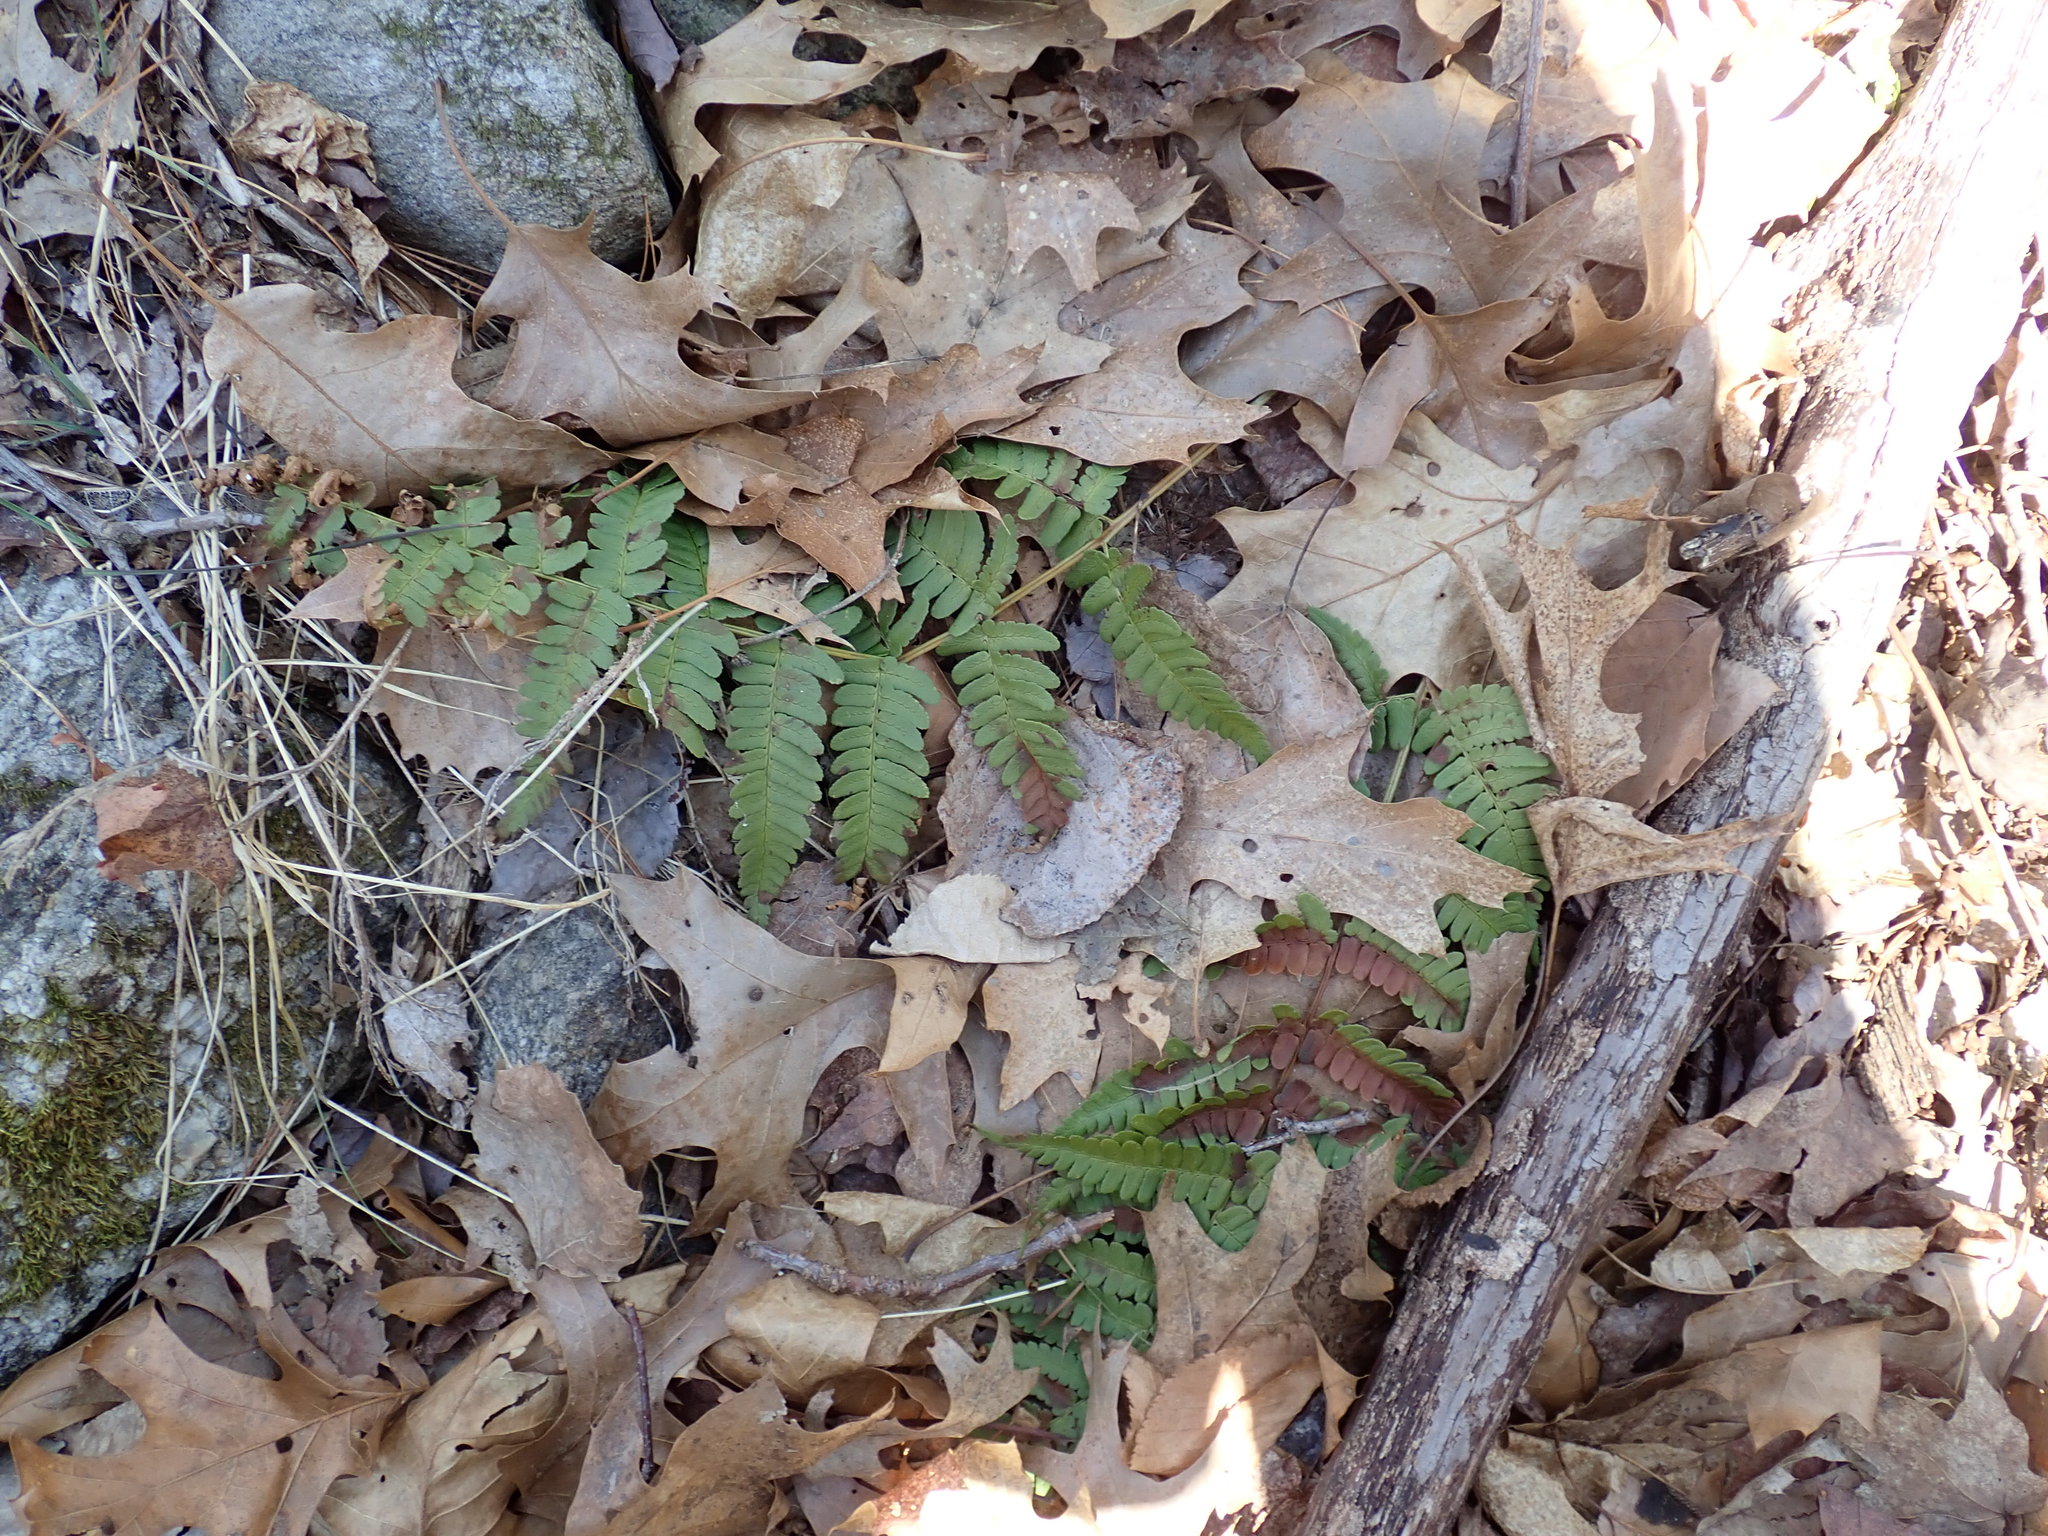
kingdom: Plantae
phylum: Tracheophyta
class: Polypodiopsida
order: Polypodiales
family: Dryopteridaceae
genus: Dryopteris
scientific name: Dryopteris marginalis
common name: Marginal wood fern
